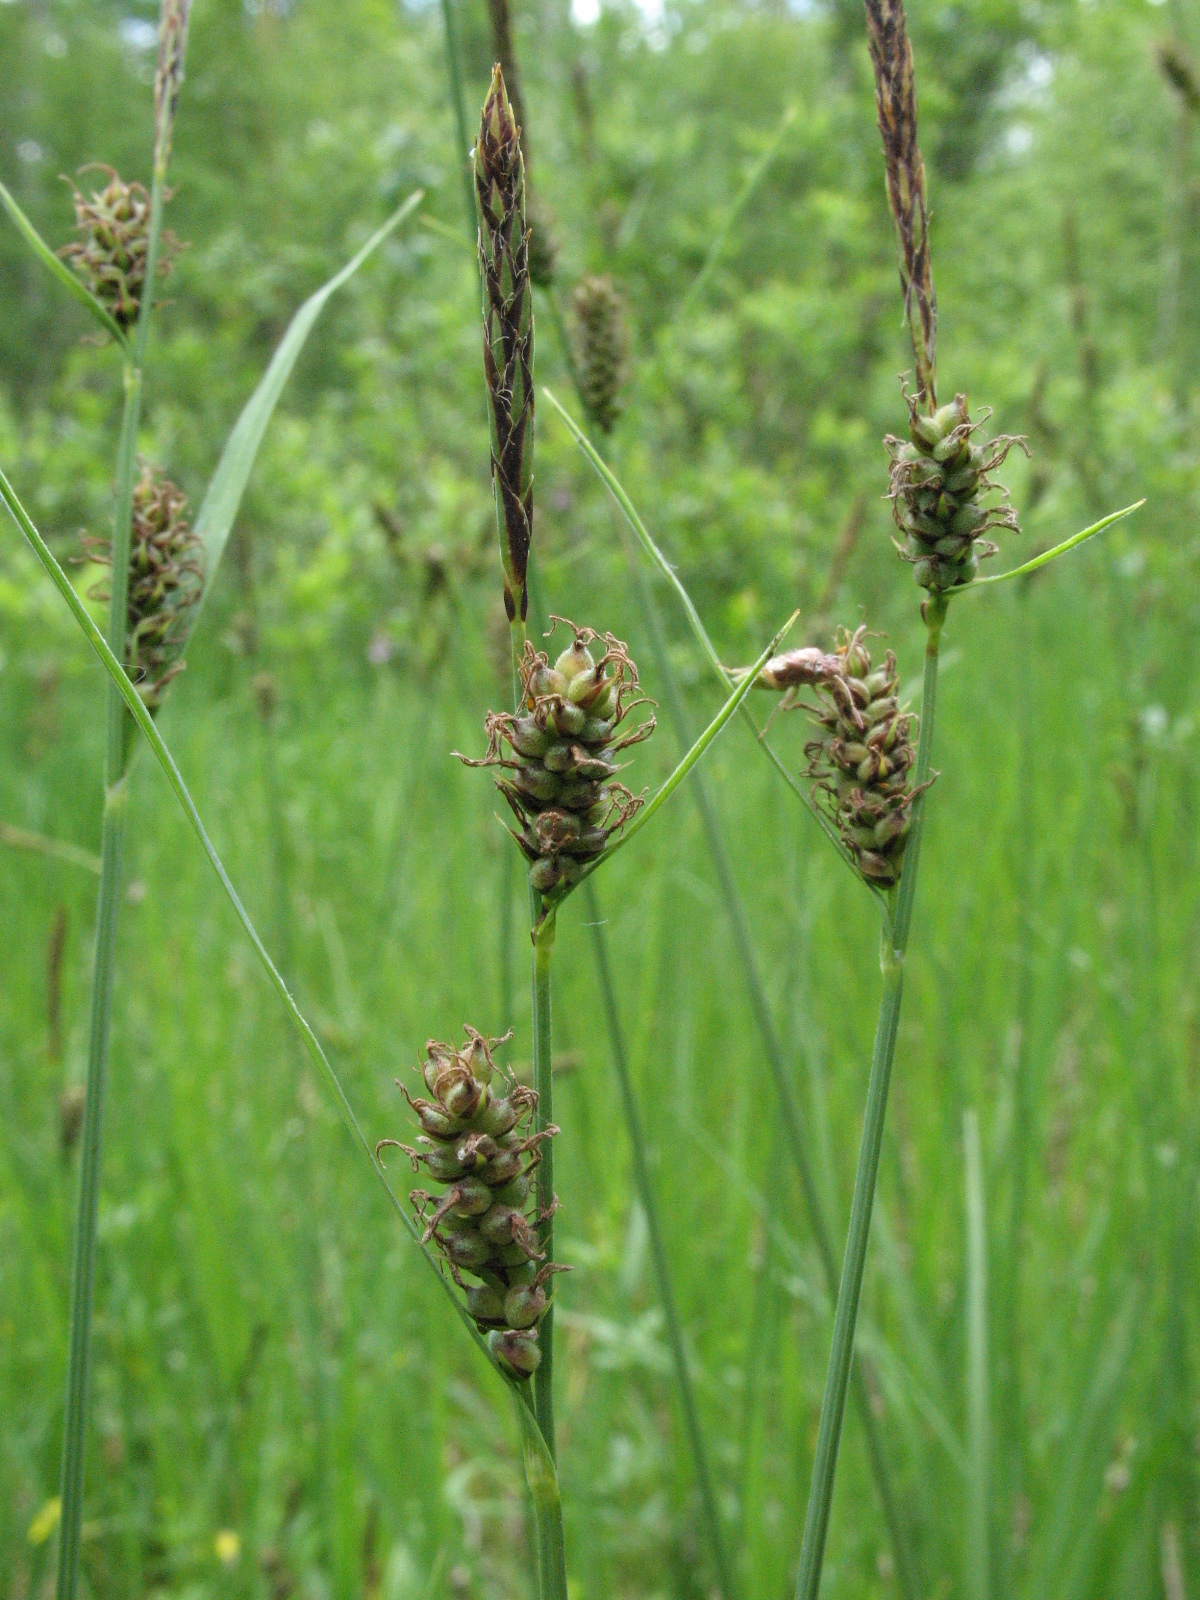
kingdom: Plantae
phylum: Tracheophyta
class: Liliopsida
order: Poales
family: Cyperaceae
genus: Carex
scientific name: Carex tomentosa
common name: Downy-fruited sedge
